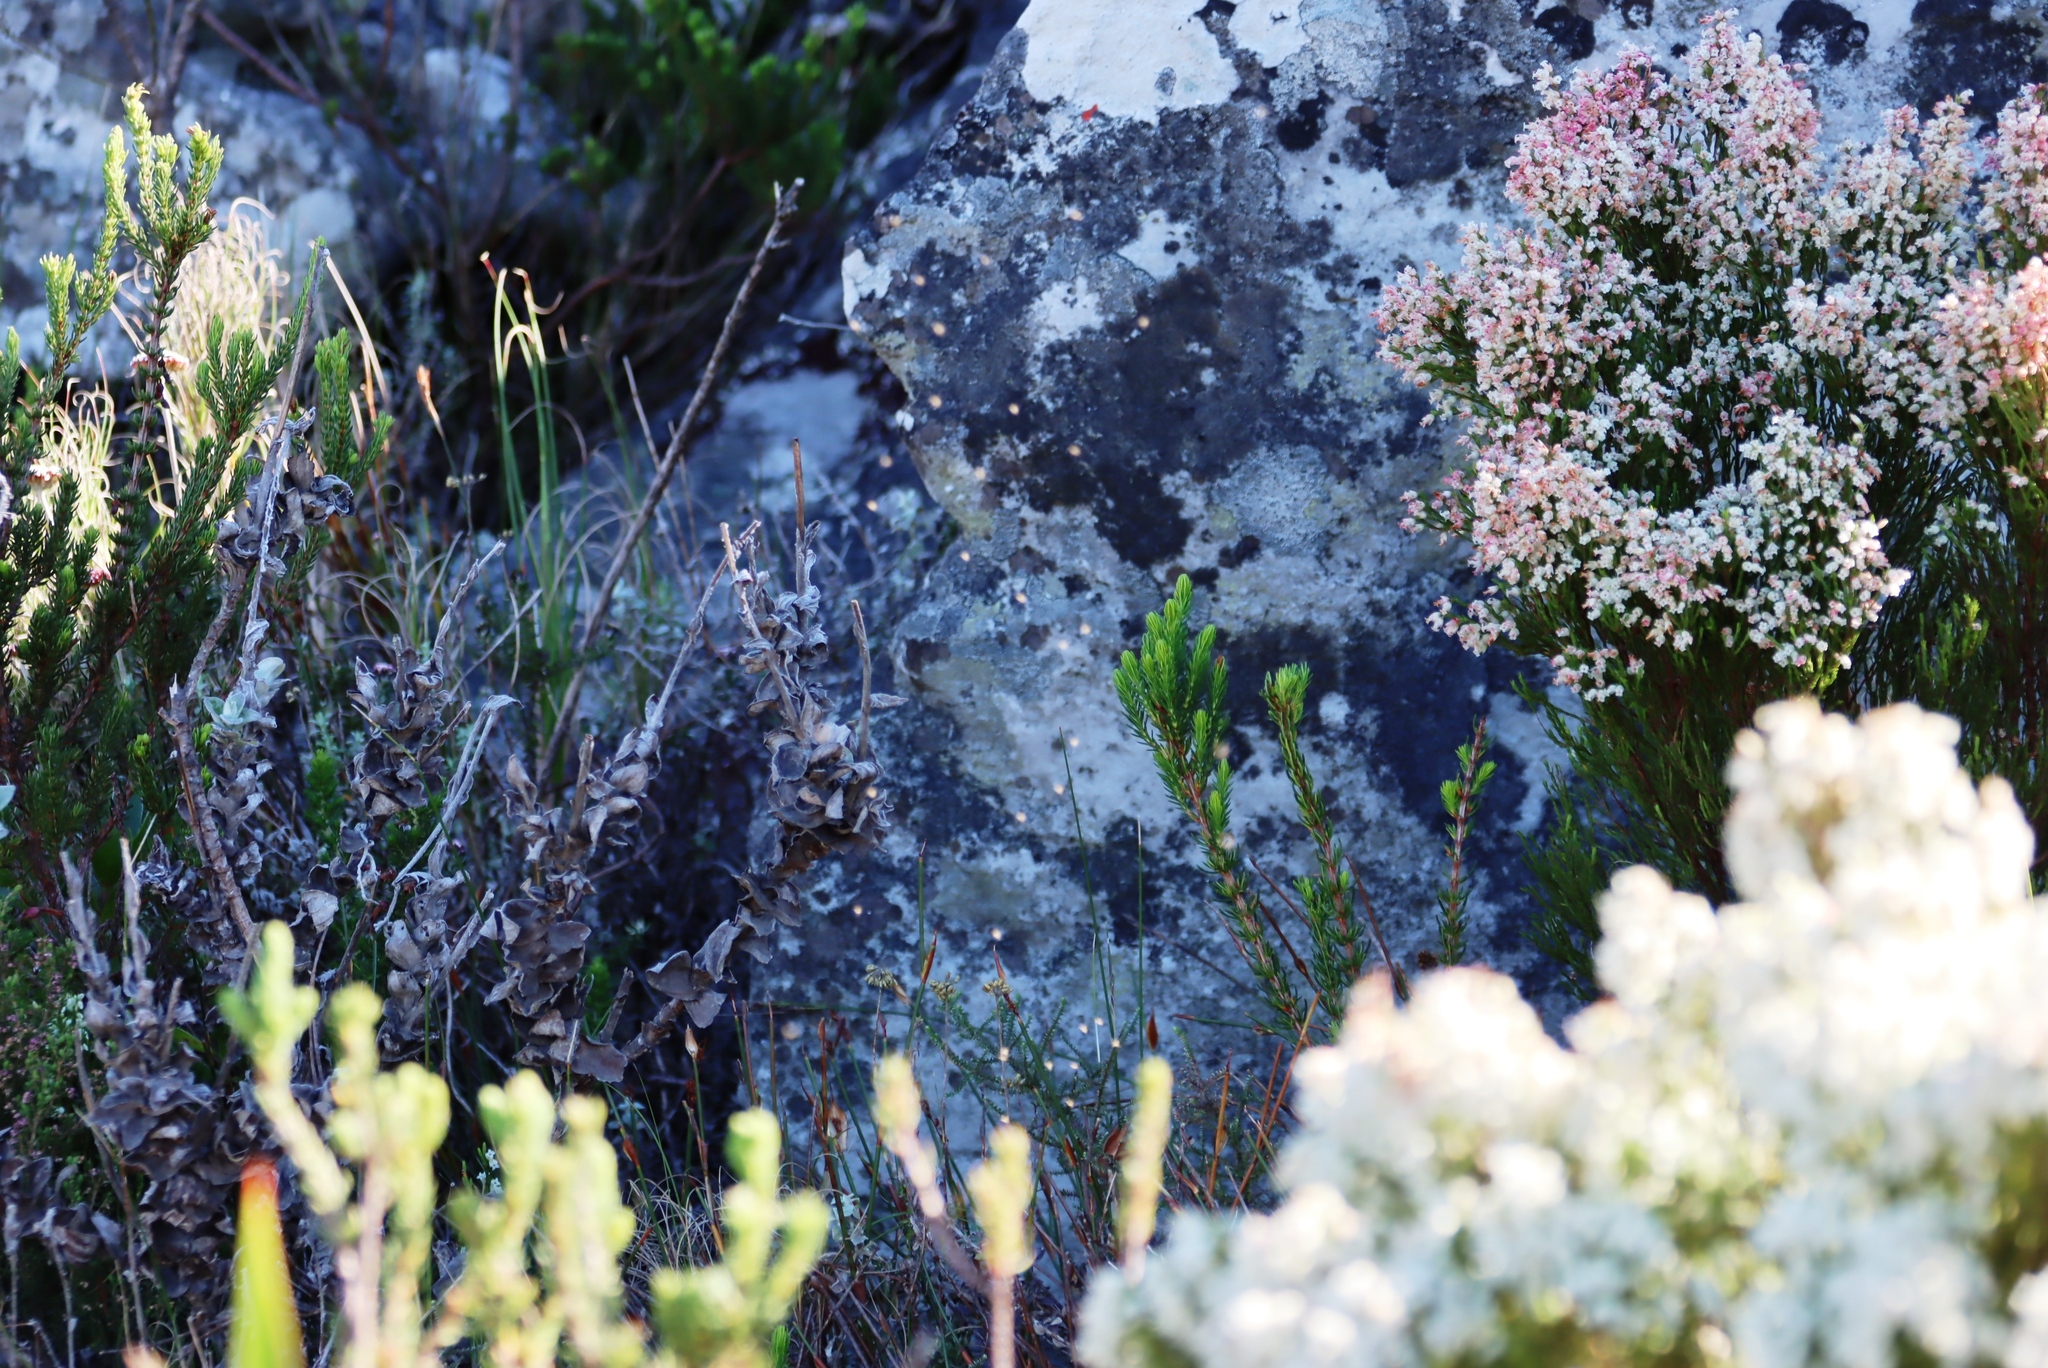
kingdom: Plantae
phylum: Tracheophyta
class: Magnoliopsida
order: Ericales
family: Ericaceae
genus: Erica
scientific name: Erica lutea
